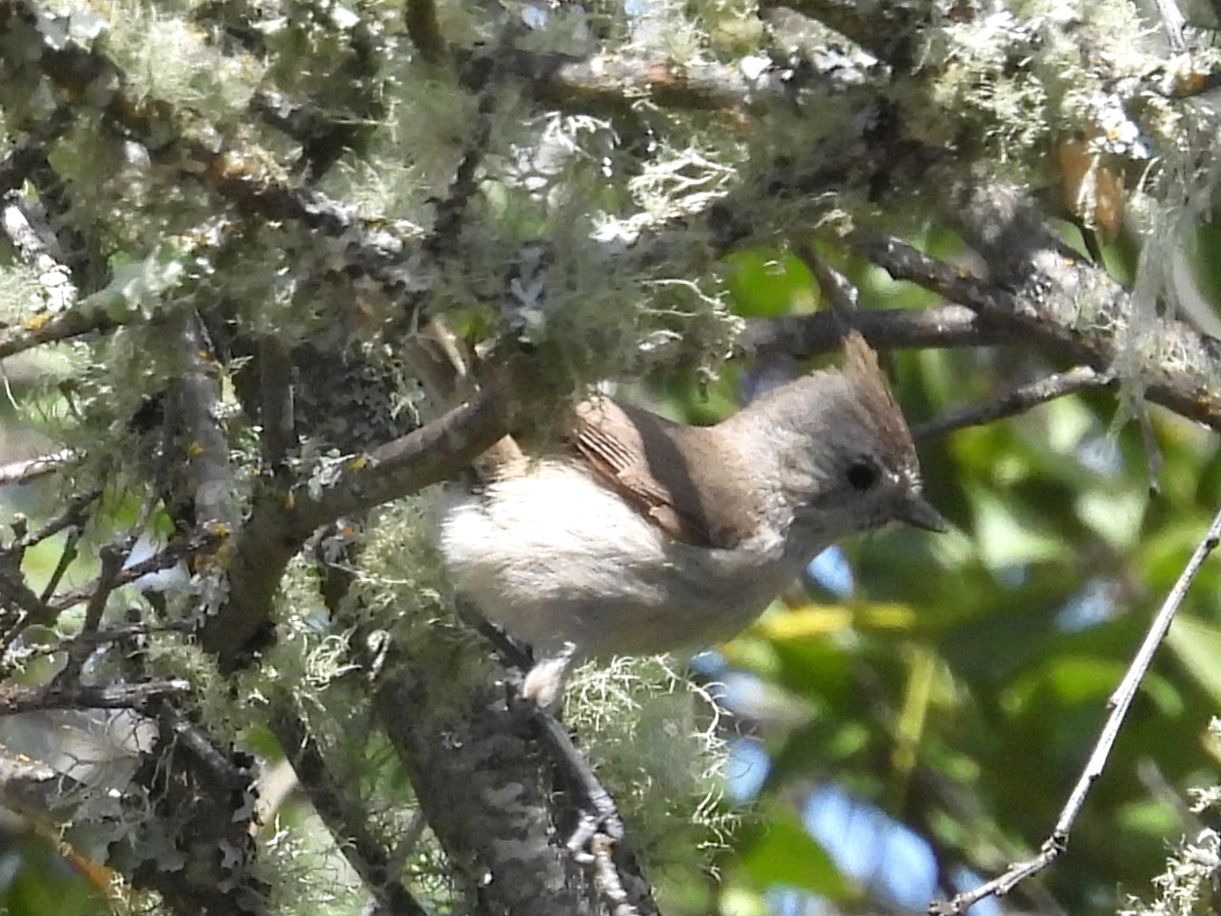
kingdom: Animalia
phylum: Chordata
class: Aves
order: Passeriformes
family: Paridae
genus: Baeolophus
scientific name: Baeolophus inornatus
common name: Oak titmouse
